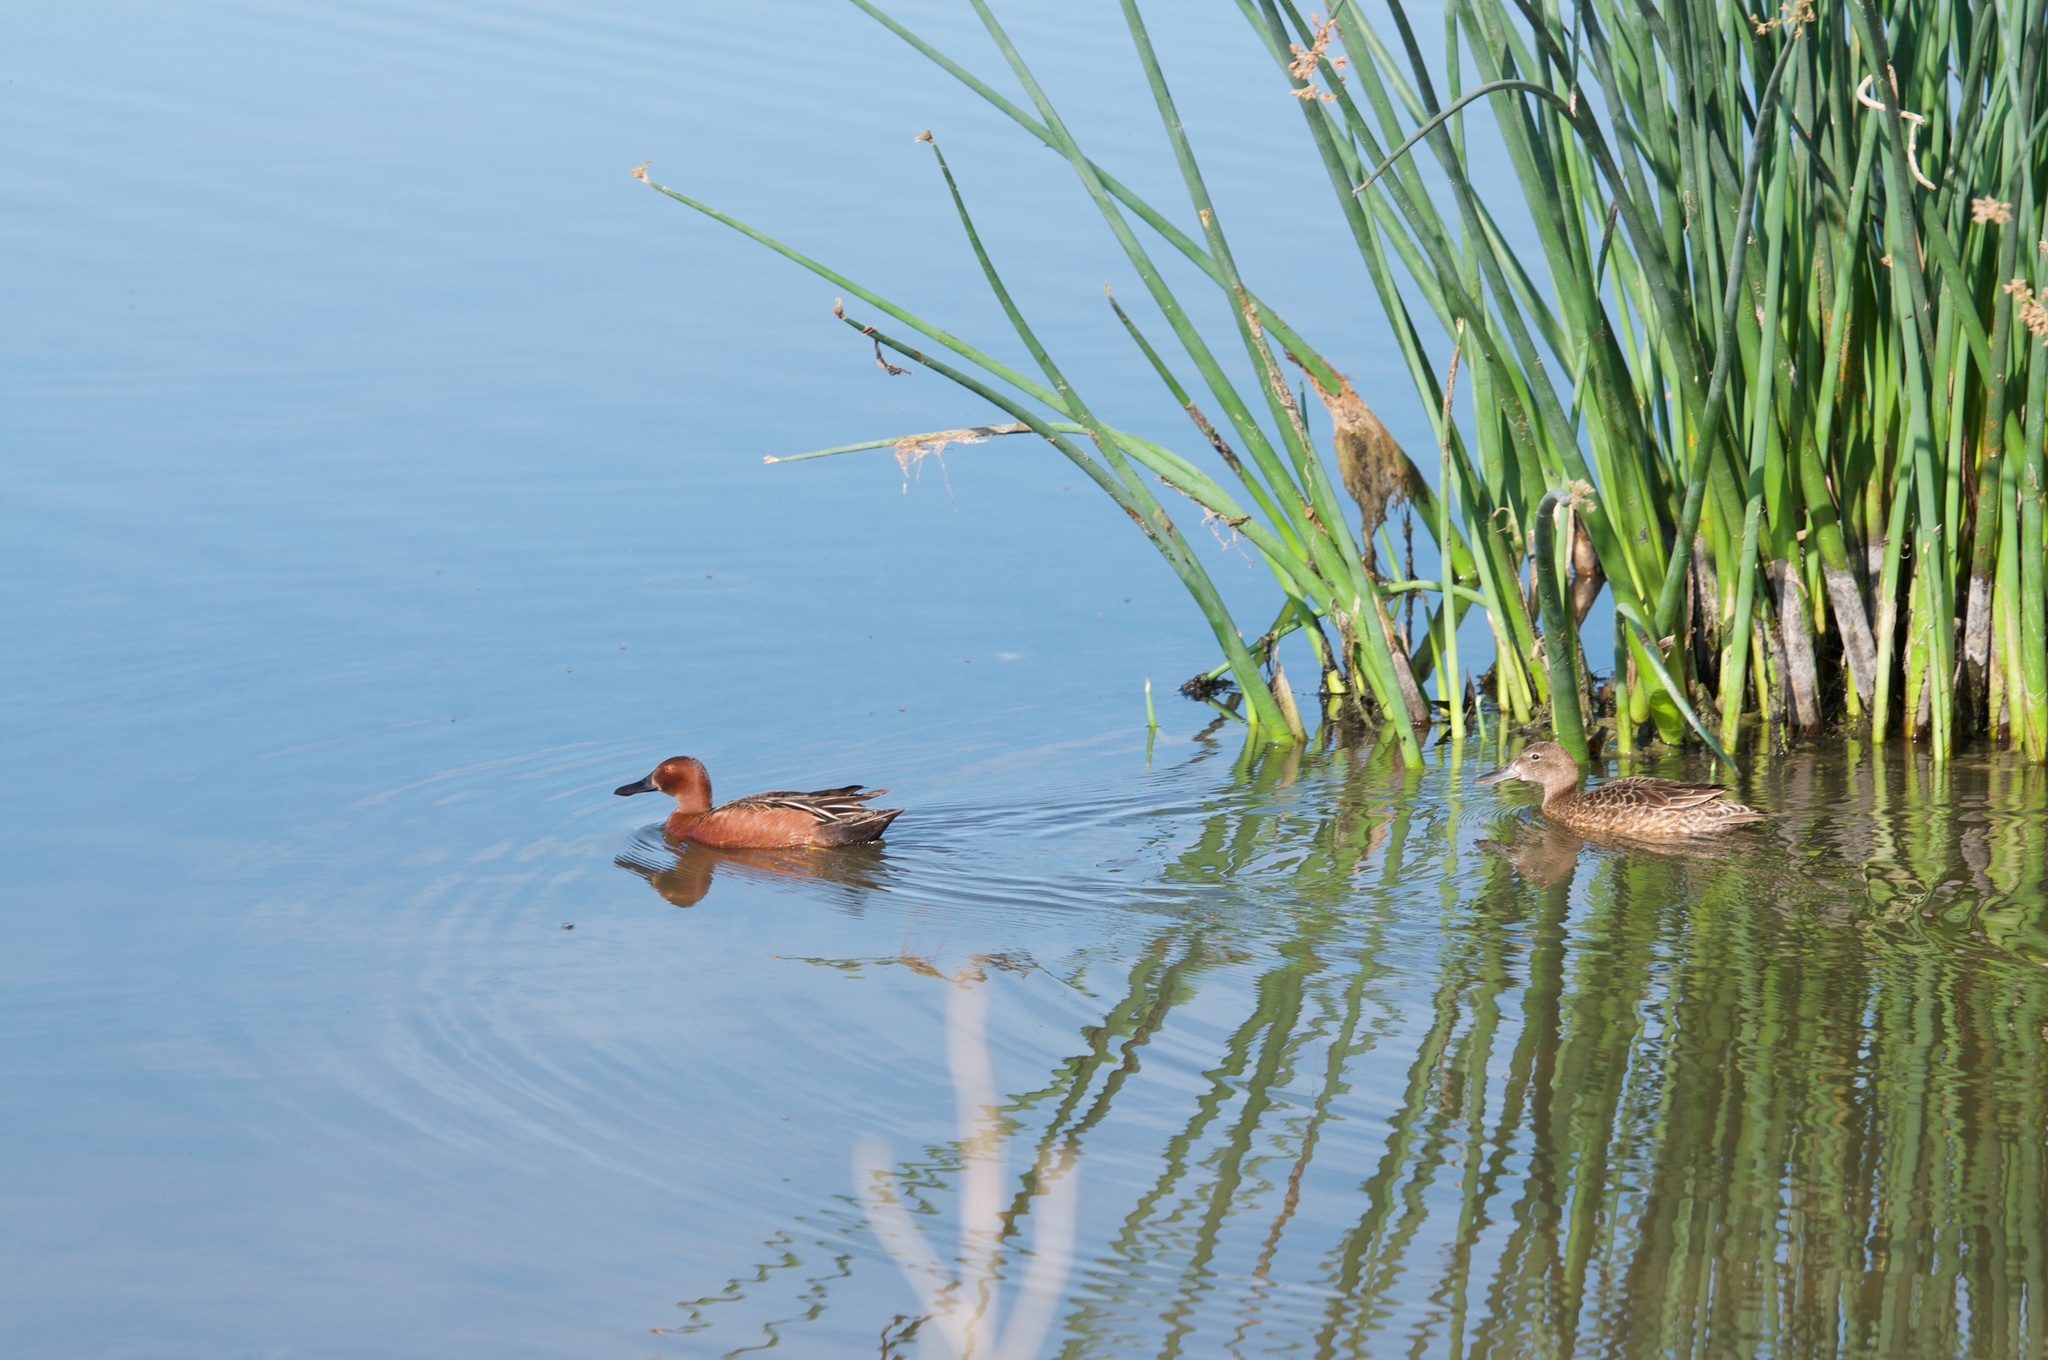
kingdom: Animalia
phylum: Chordata
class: Aves
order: Anseriformes
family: Anatidae
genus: Spatula
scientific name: Spatula cyanoptera
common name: Cinnamon teal
